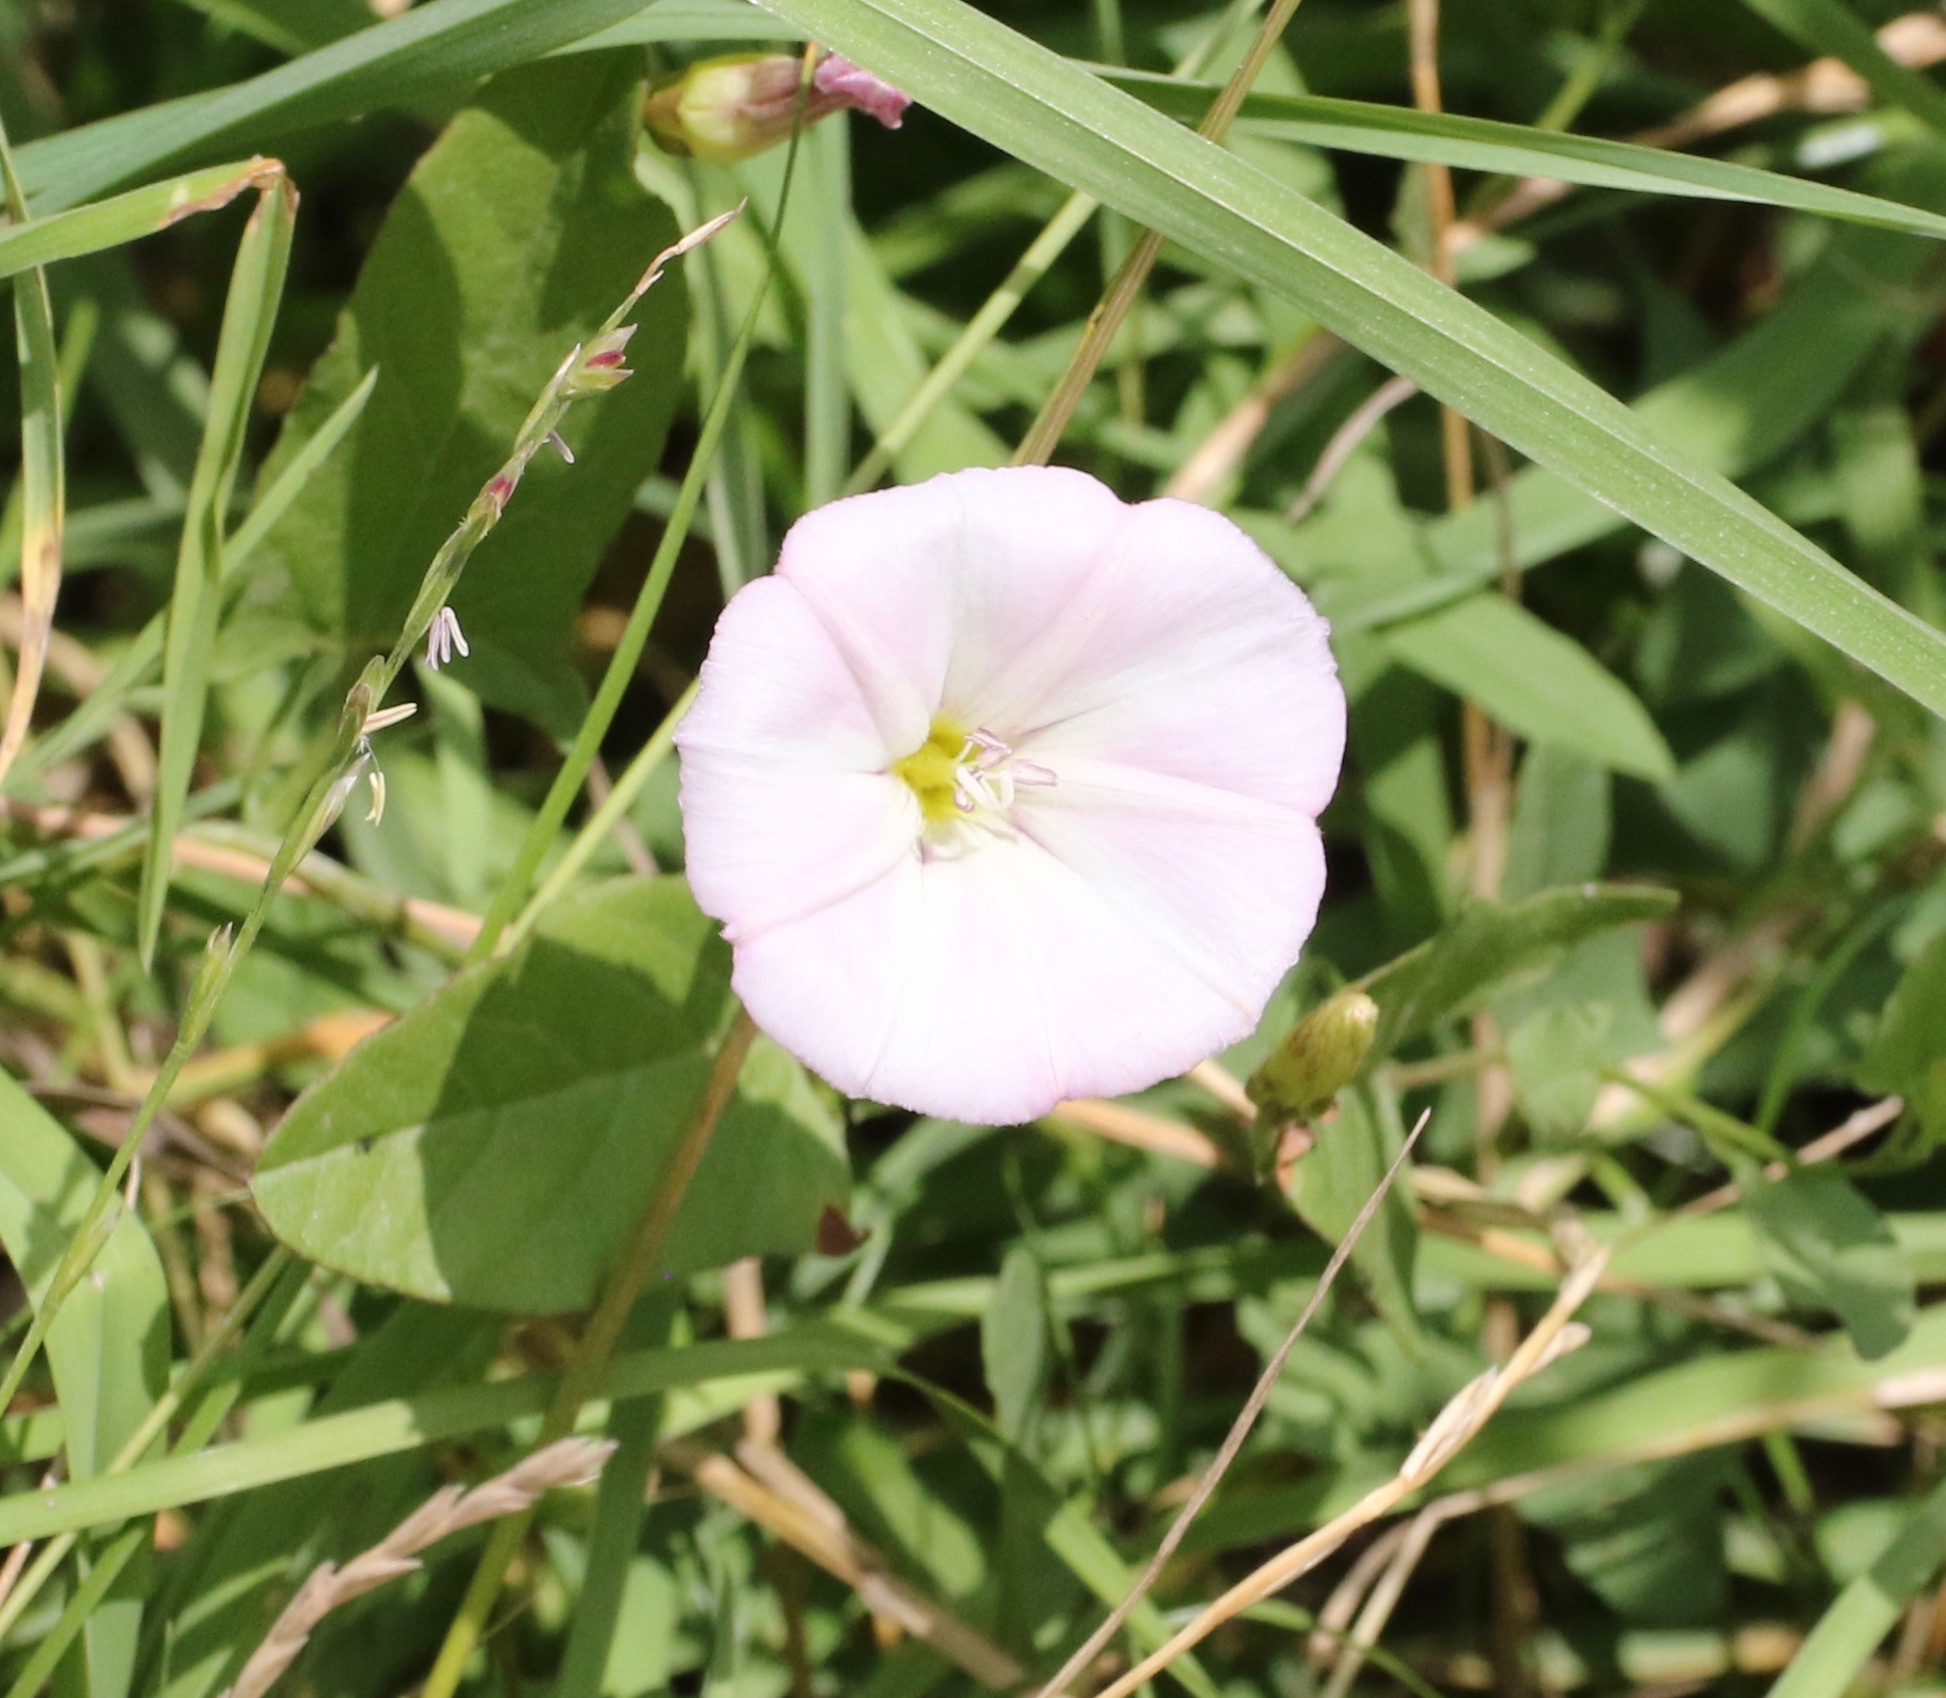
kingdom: Plantae
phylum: Tracheophyta
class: Magnoliopsida
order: Solanales
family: Convolvulaceae
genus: Convolvulus
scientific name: Convolvulus arvensis
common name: Field bindweed
